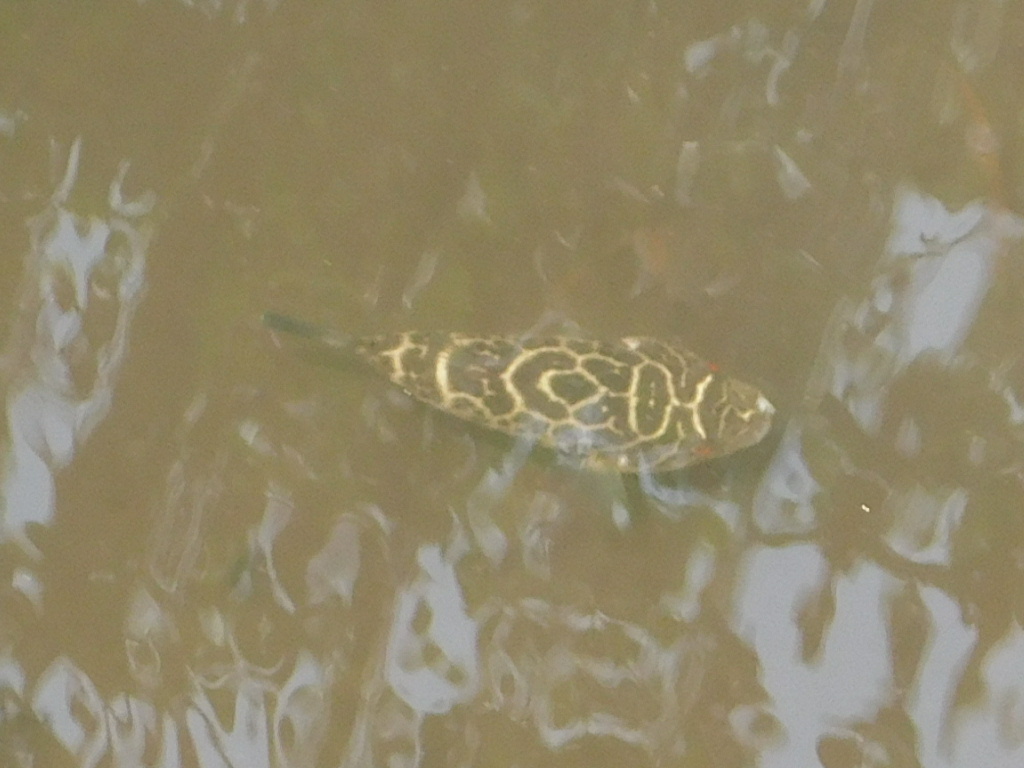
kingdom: Animalia
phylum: Chordata
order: Tetraodontiformes
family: Tetraodontidae
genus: Sphoeroides
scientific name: Sphoeroides testudineus
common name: Checkered puffer
